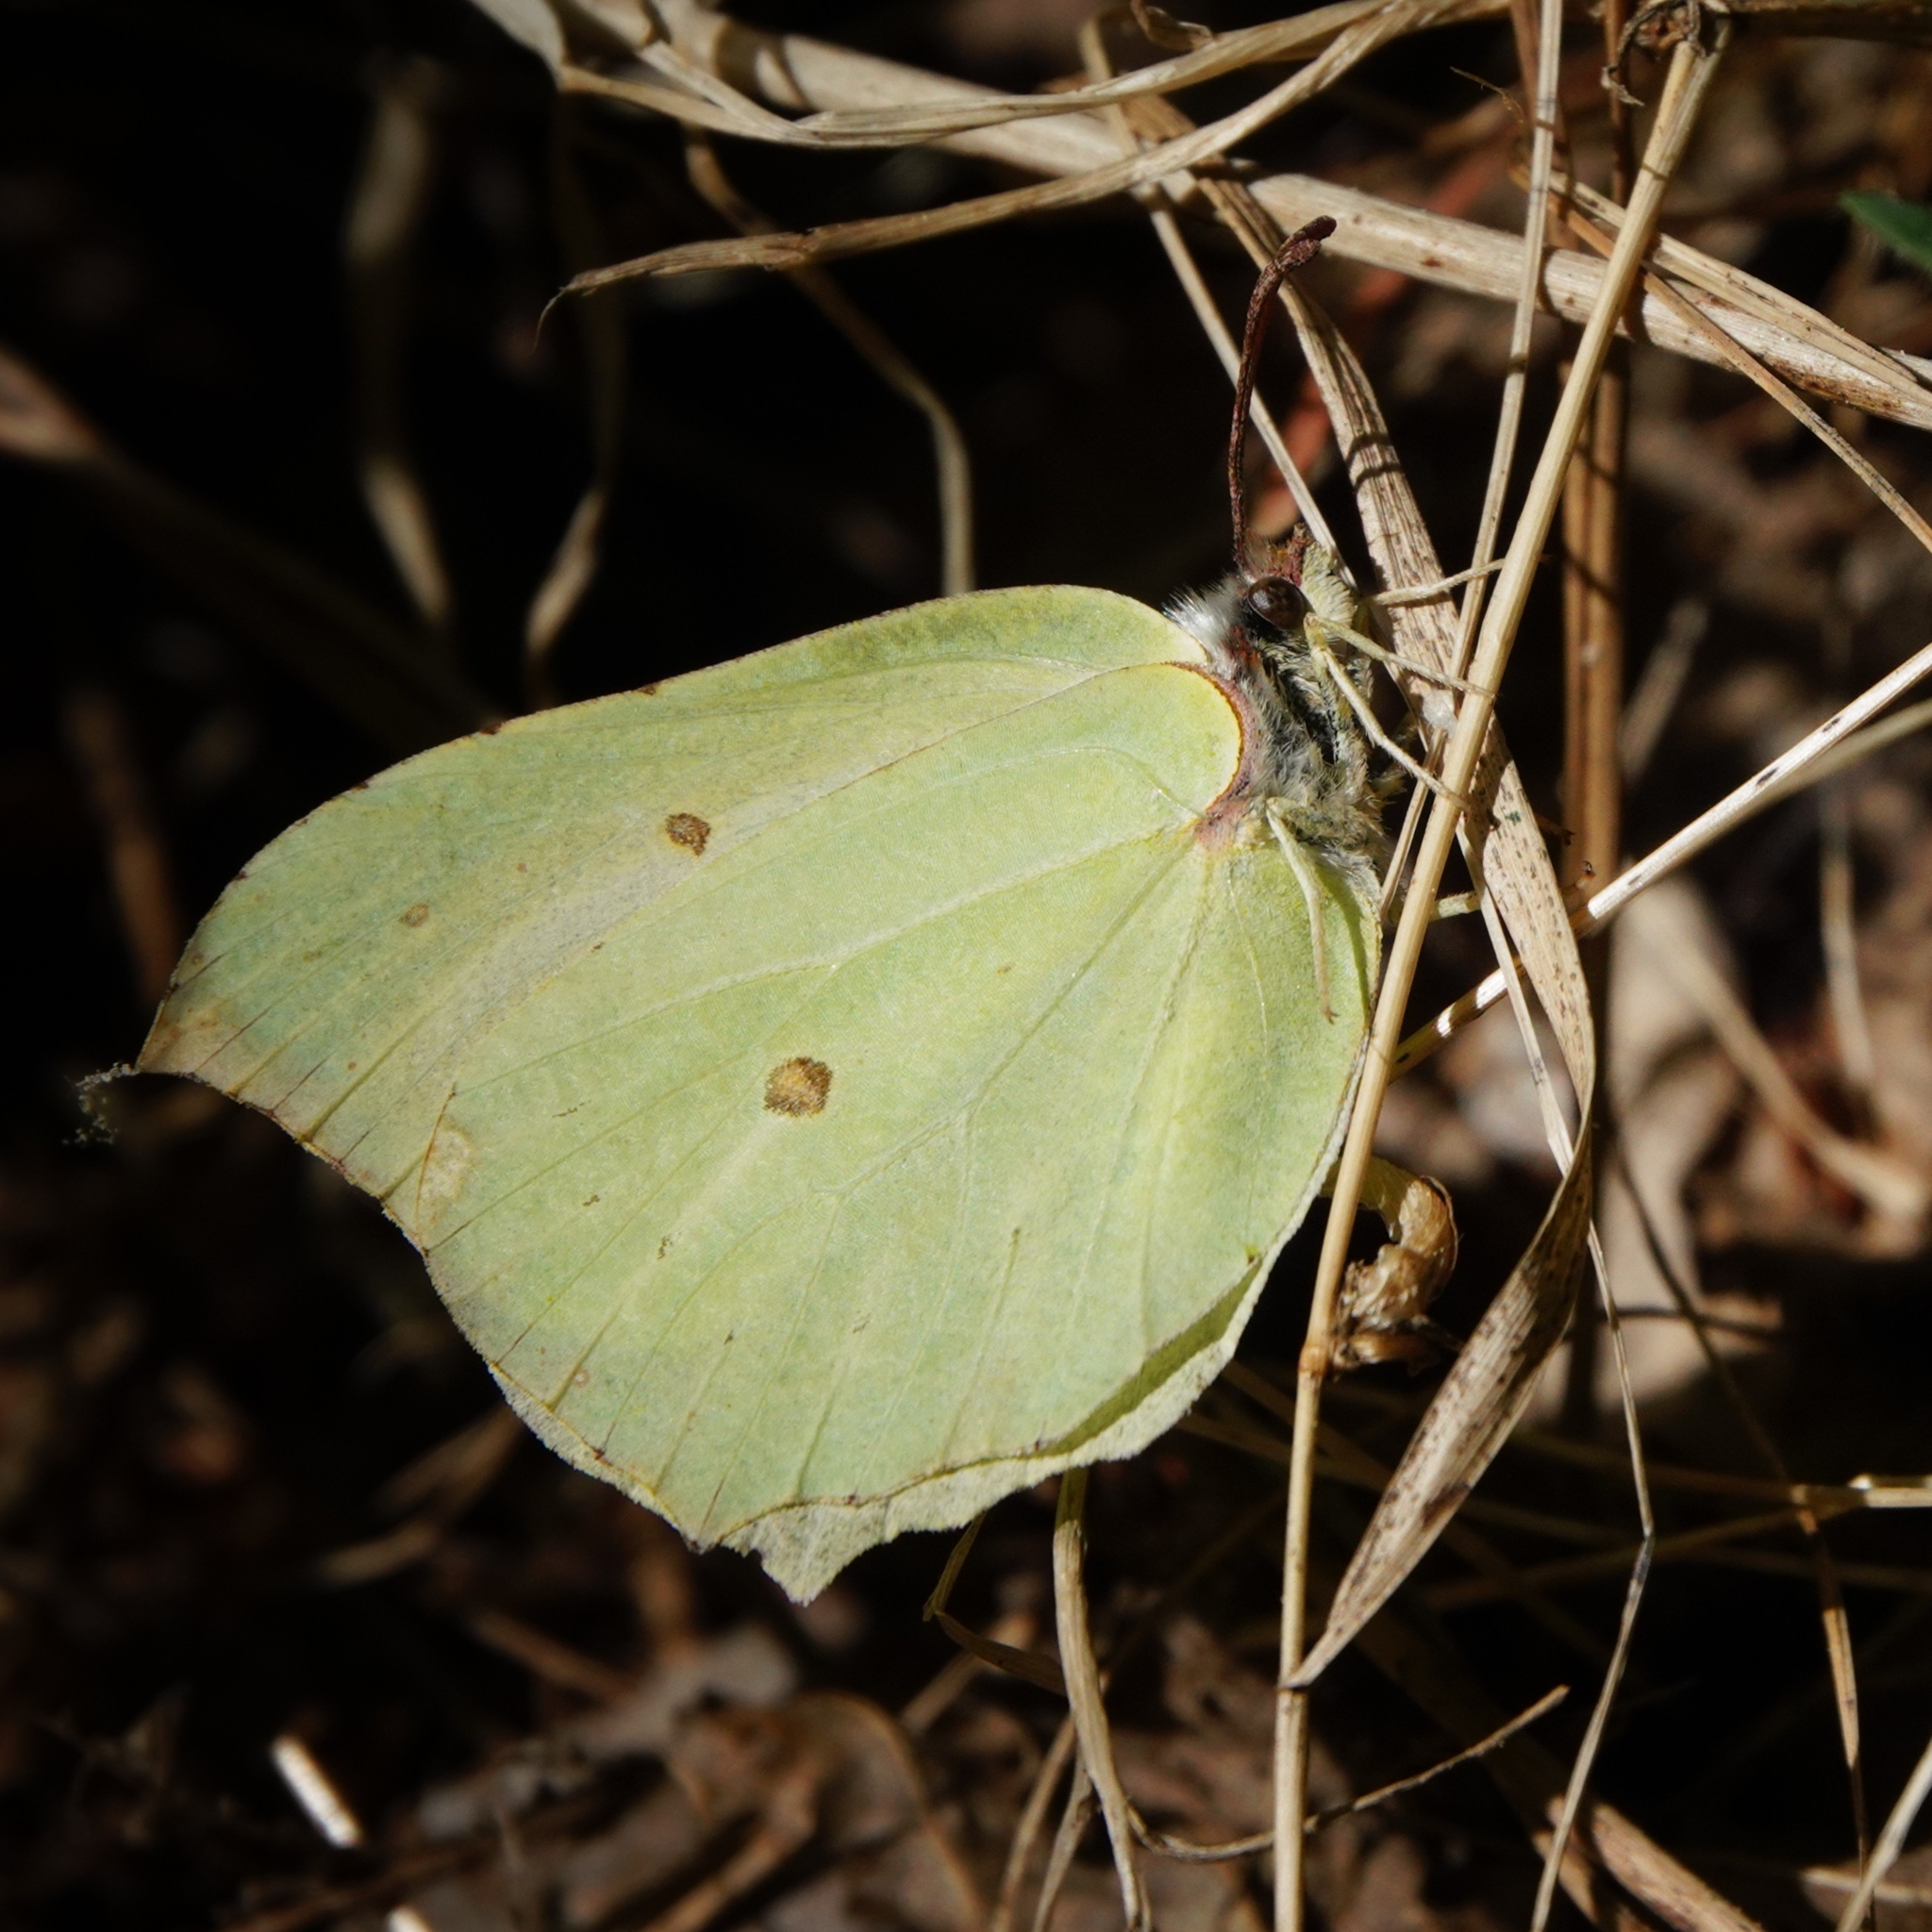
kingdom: Animalia
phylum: Arthropoda
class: Insecta
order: Lepidoptera
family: Pieridae
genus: Gonepteryx
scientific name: Gonepteryx rhamni
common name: Brimstone
